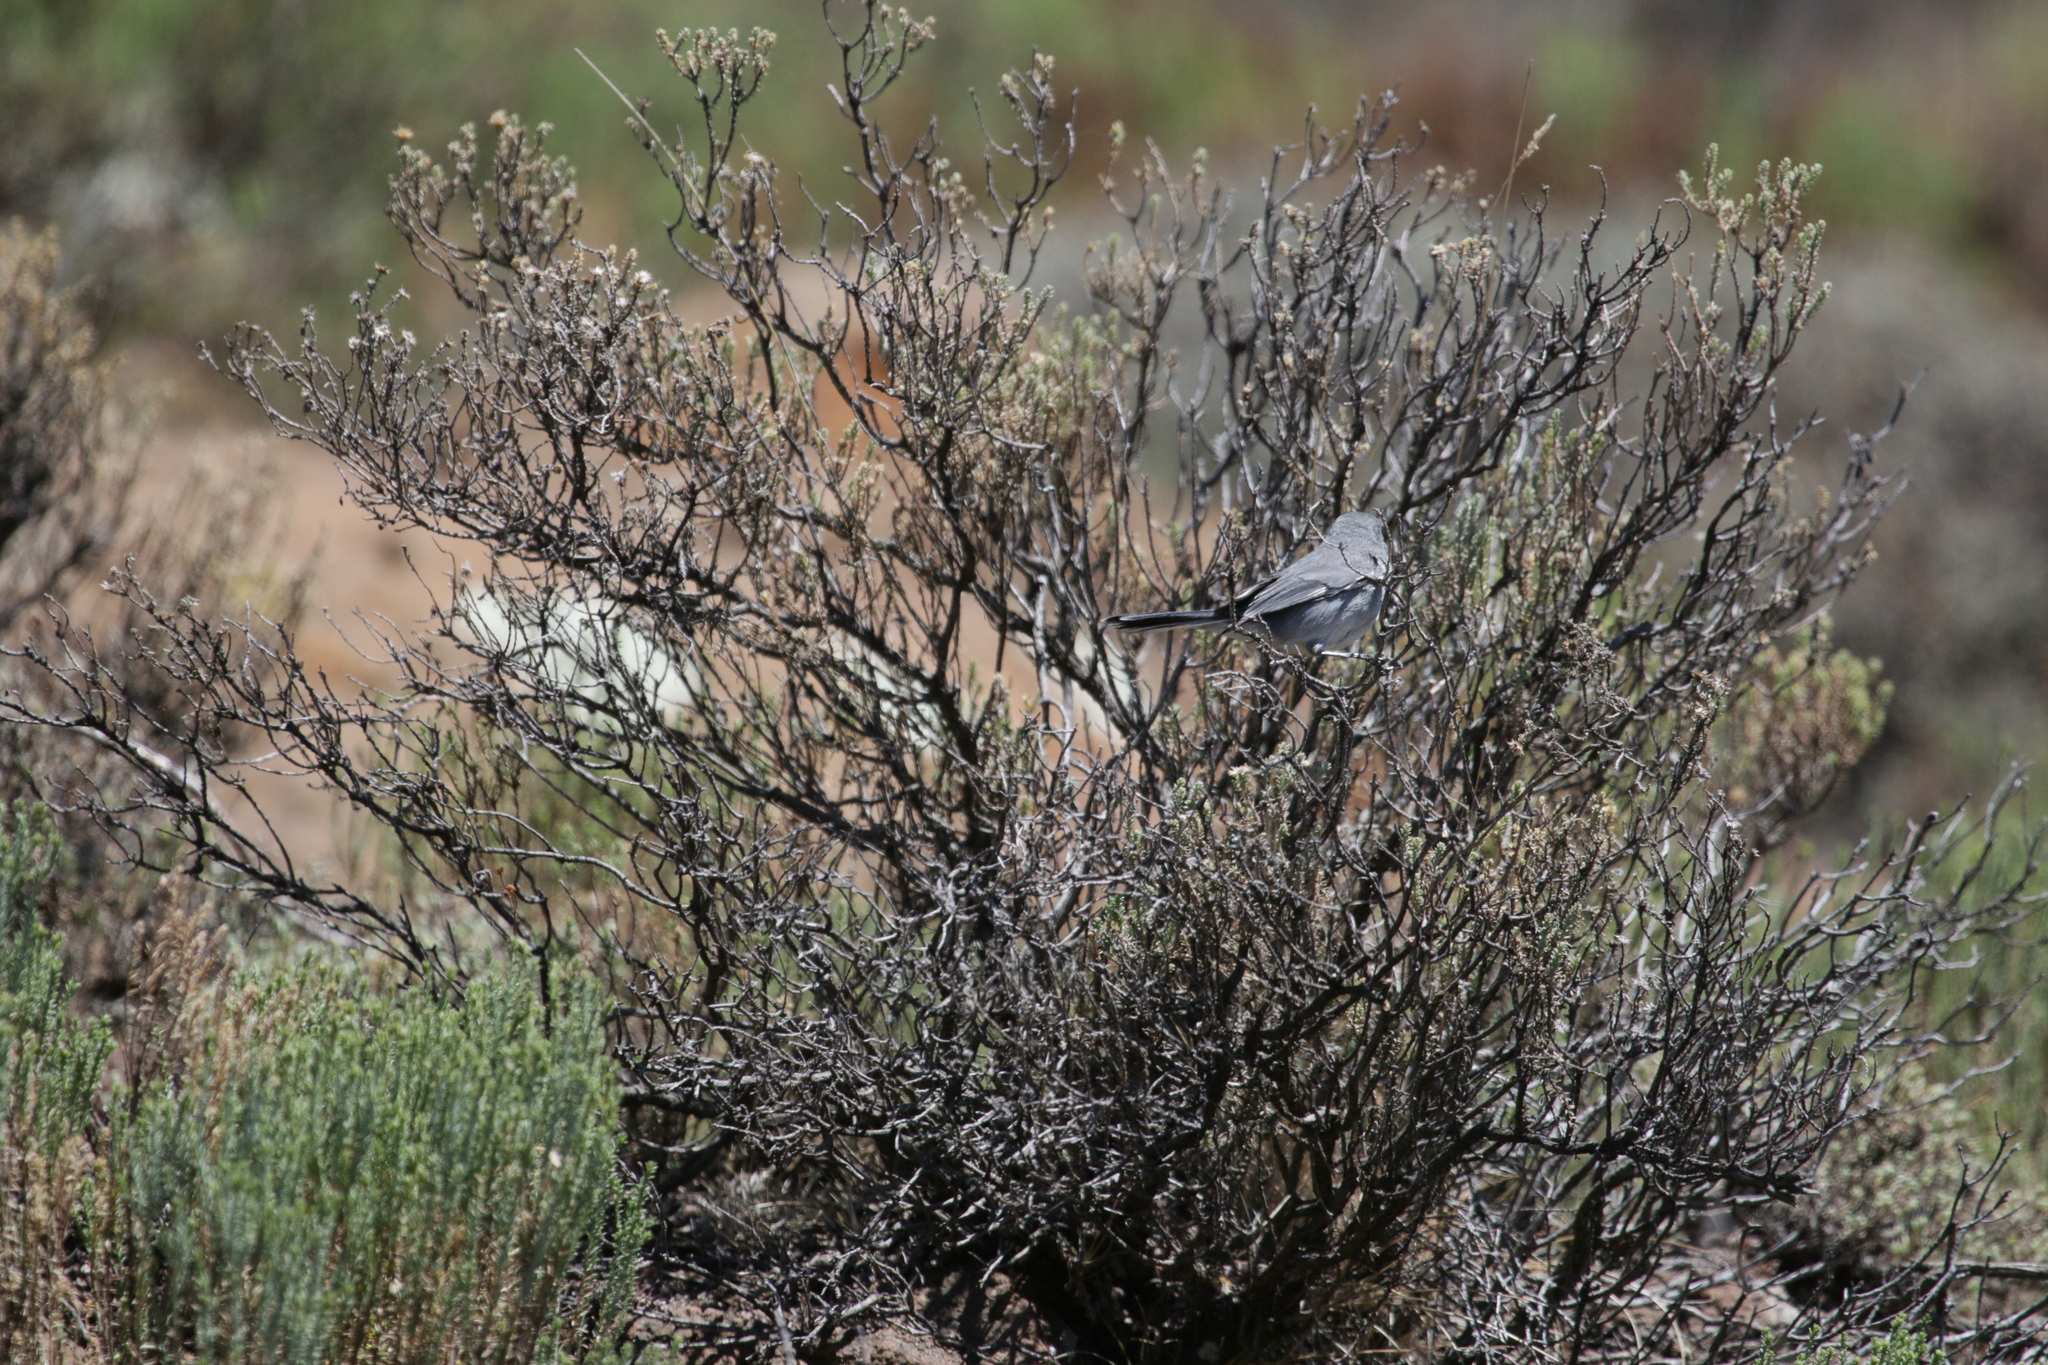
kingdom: Animalia
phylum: Chordata
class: Aves
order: Passeriformes
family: Sylviidae
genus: Sylvia
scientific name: Sylvia layardi
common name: Layard's warbler
